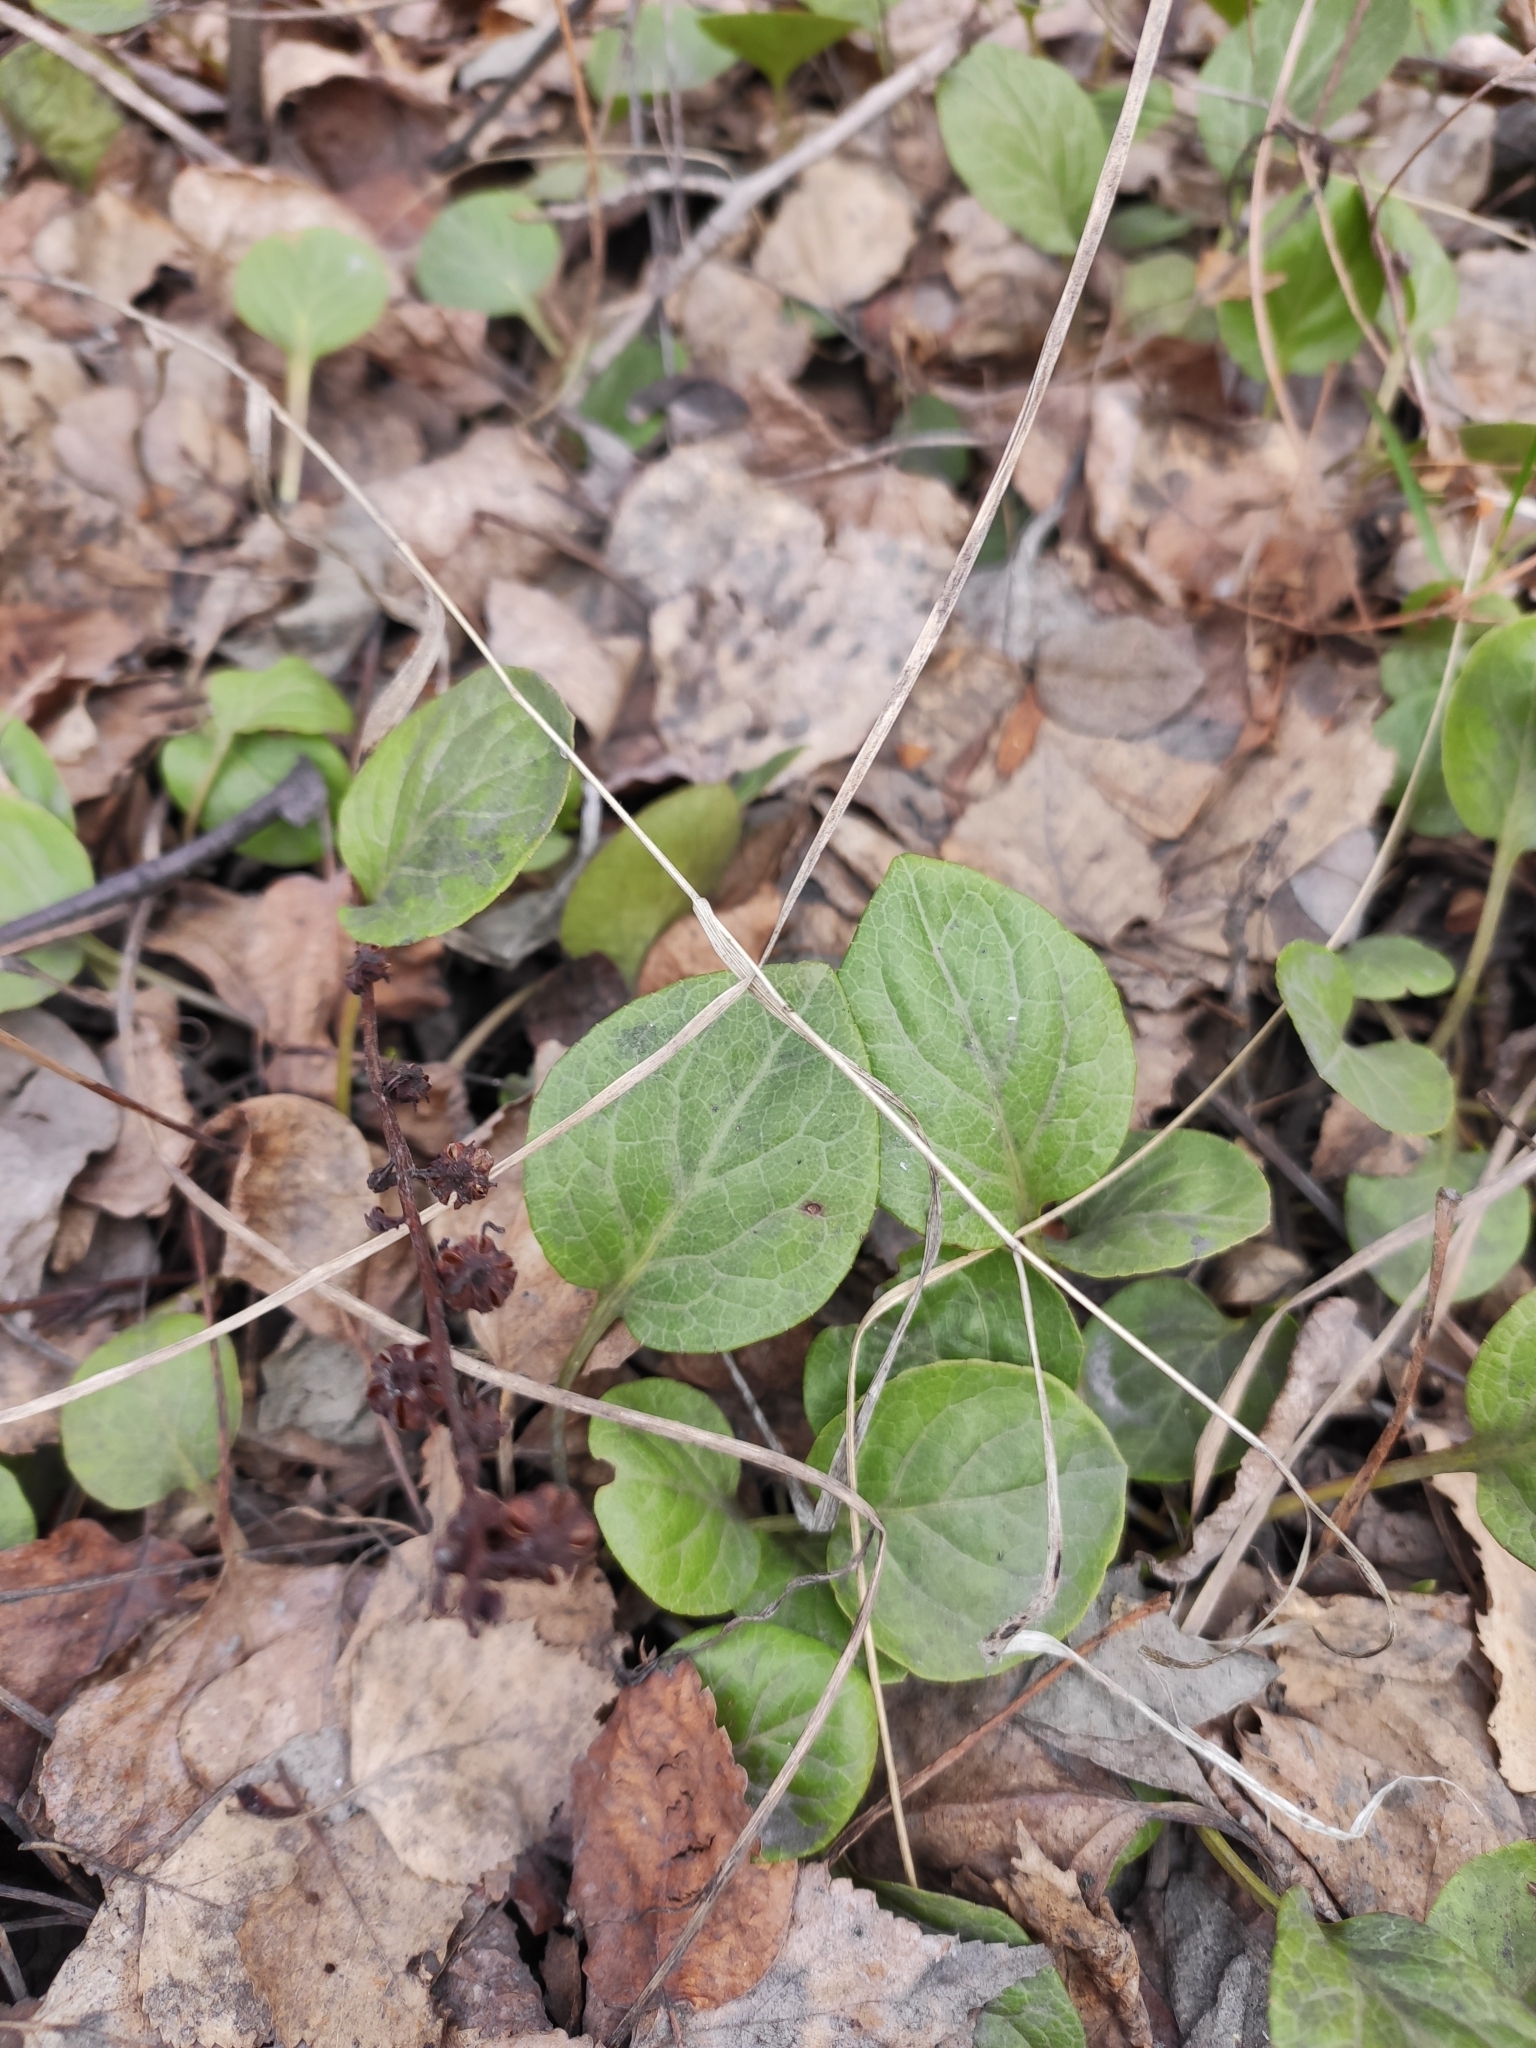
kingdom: Plantae
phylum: Tracheophyta
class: Magnoliopsida
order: Ericales
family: Ericaceae
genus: Pyrola
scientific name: Pyrola rotundifolia
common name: Round-leaved wintergreen
